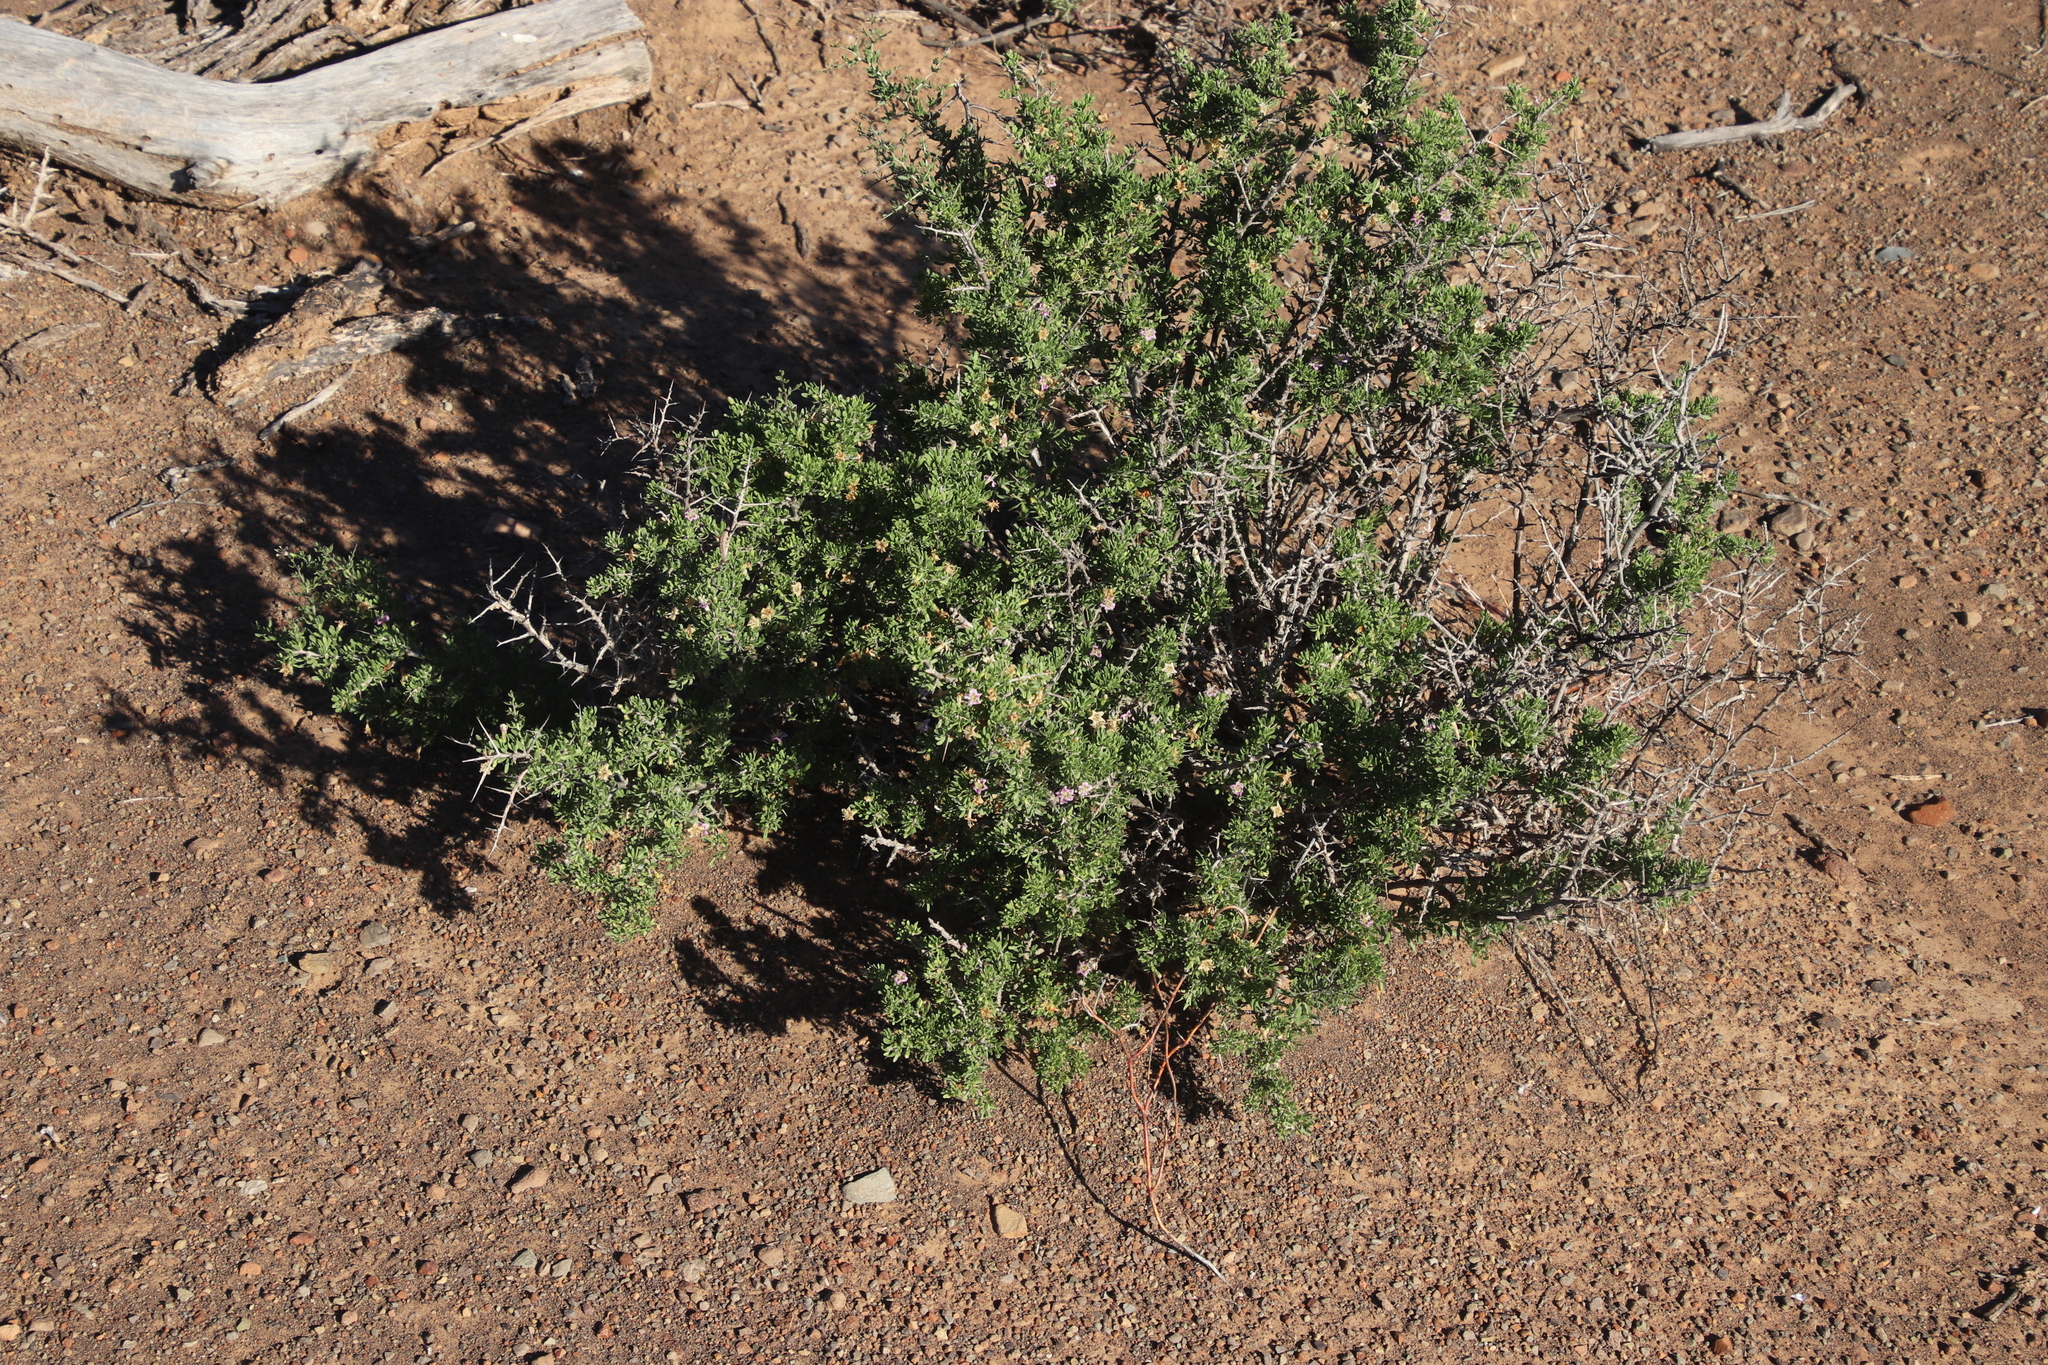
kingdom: Plantae
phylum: Tracheophyta
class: Magnoliopsida
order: Solanales
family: Solanaceae
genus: Lycium
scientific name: Lycium schizocalyx
